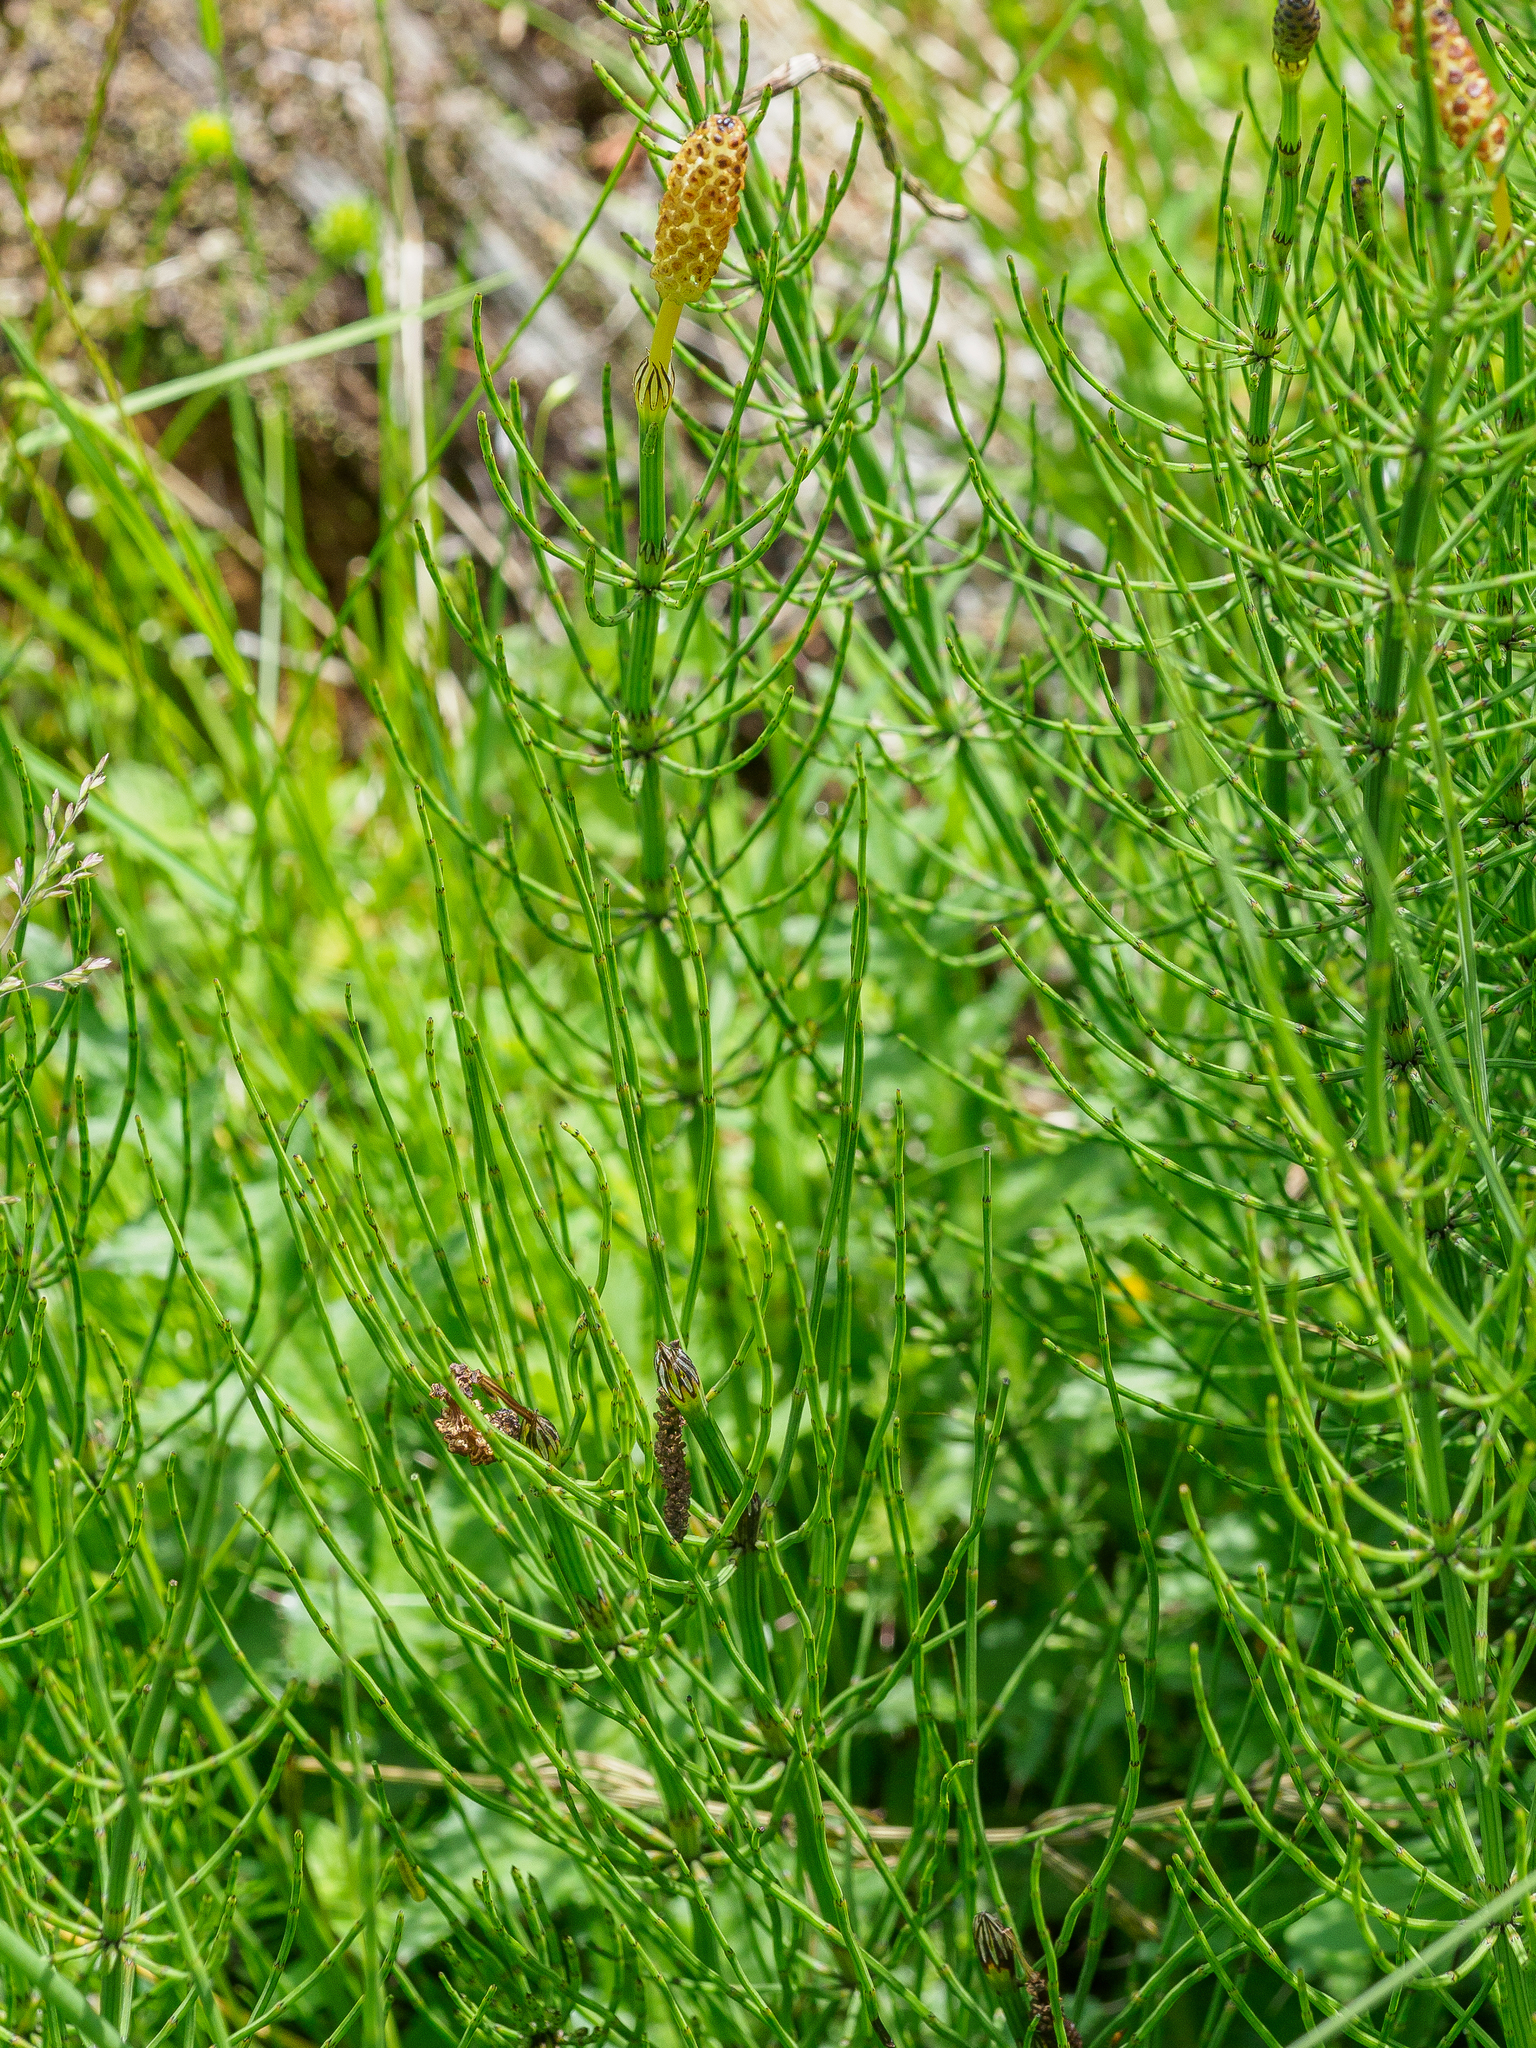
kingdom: Plantae
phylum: Tracheophyta
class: Polypodiopsida
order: Equisetales
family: Equisetaceae
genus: Equisetum
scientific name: Equisetum palustre
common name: Marsh horsetail
